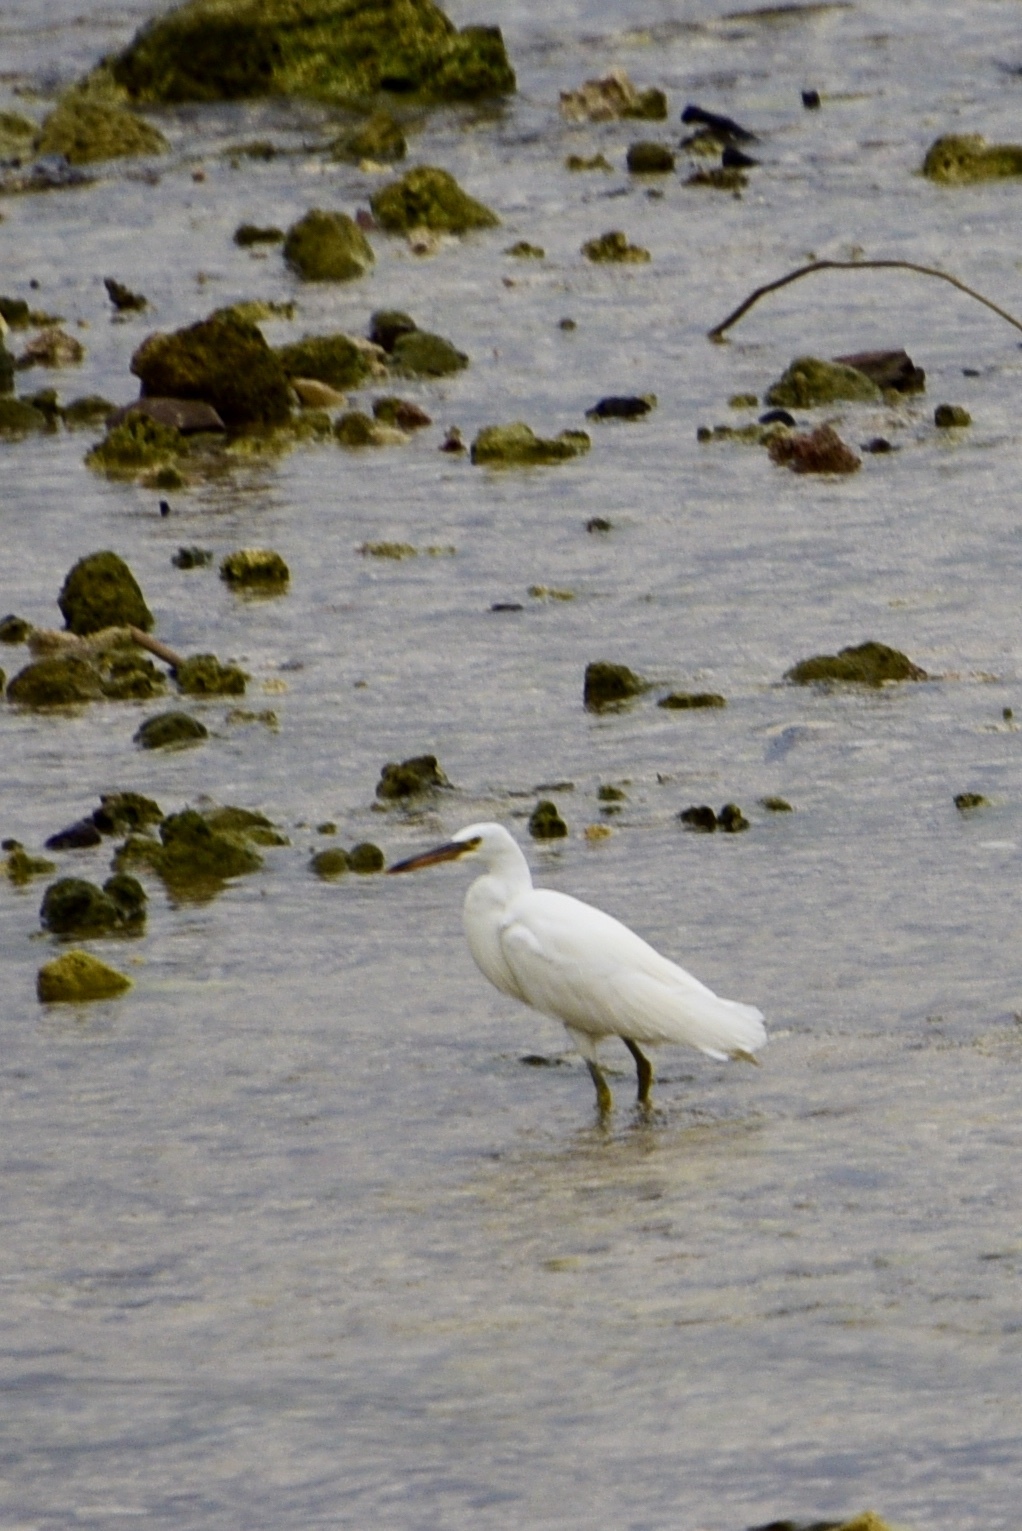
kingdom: Animalia
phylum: Chordata
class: Aves
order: Pelecaniformes
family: Ardeidae
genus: Egretta
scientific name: Egretta sacra
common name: Pacific reef heron
